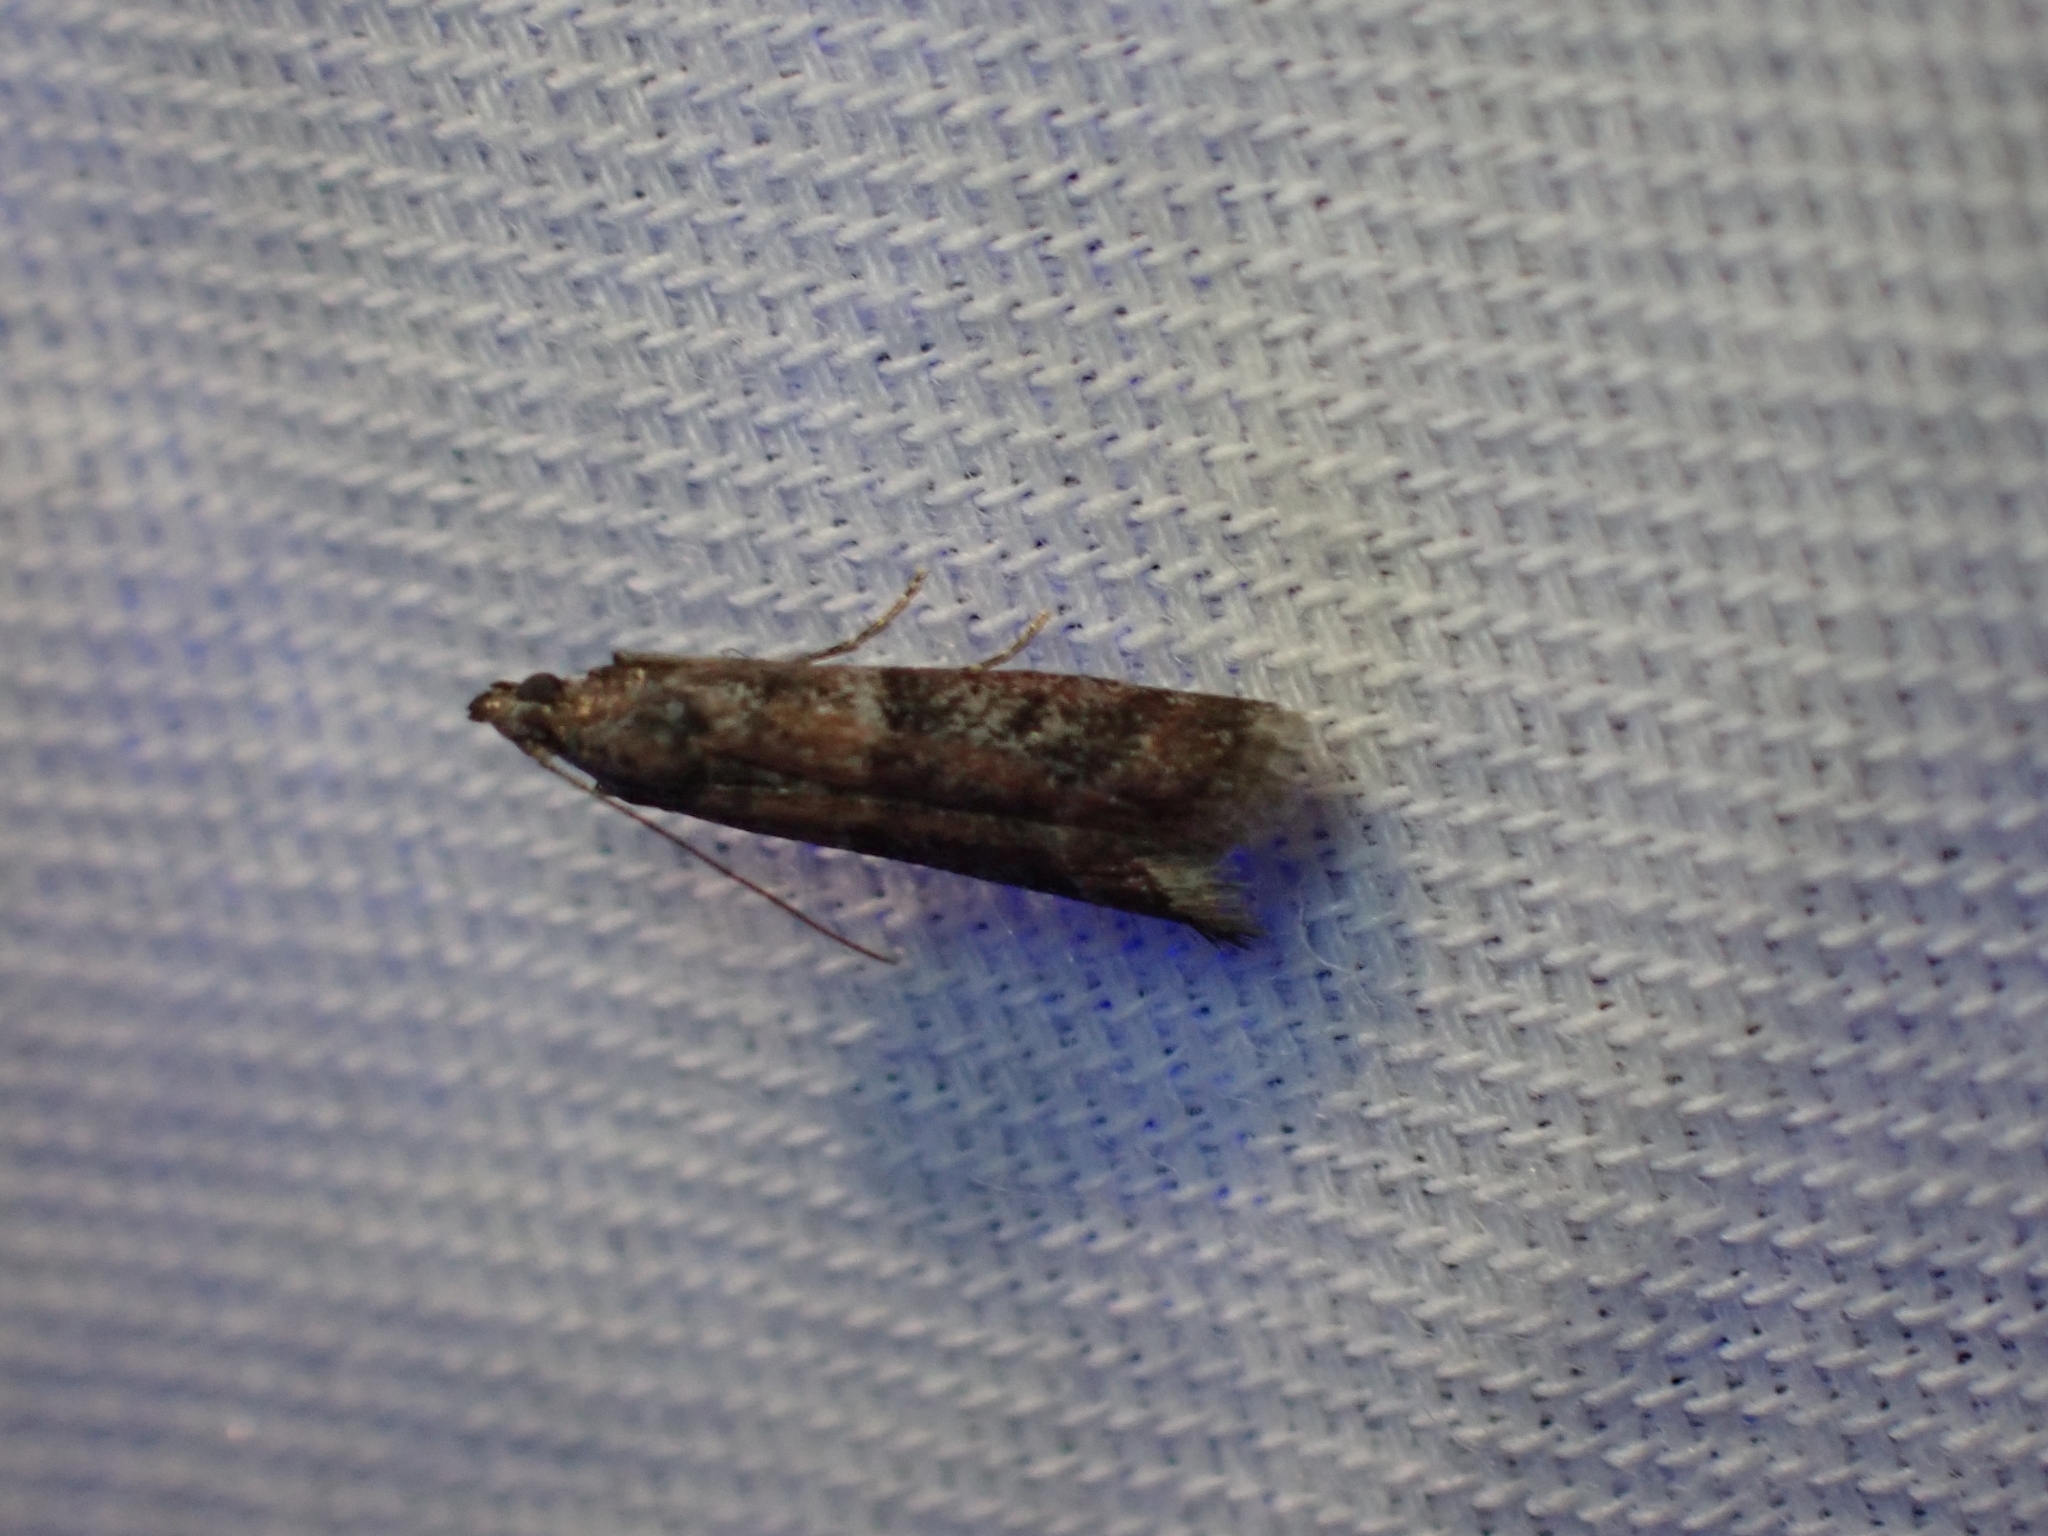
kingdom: Animalia
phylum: Arthropoda
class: Insecta
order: Lepidoptera
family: Pyralidae
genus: Ephestiodes
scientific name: Ephestiodes erythrella
